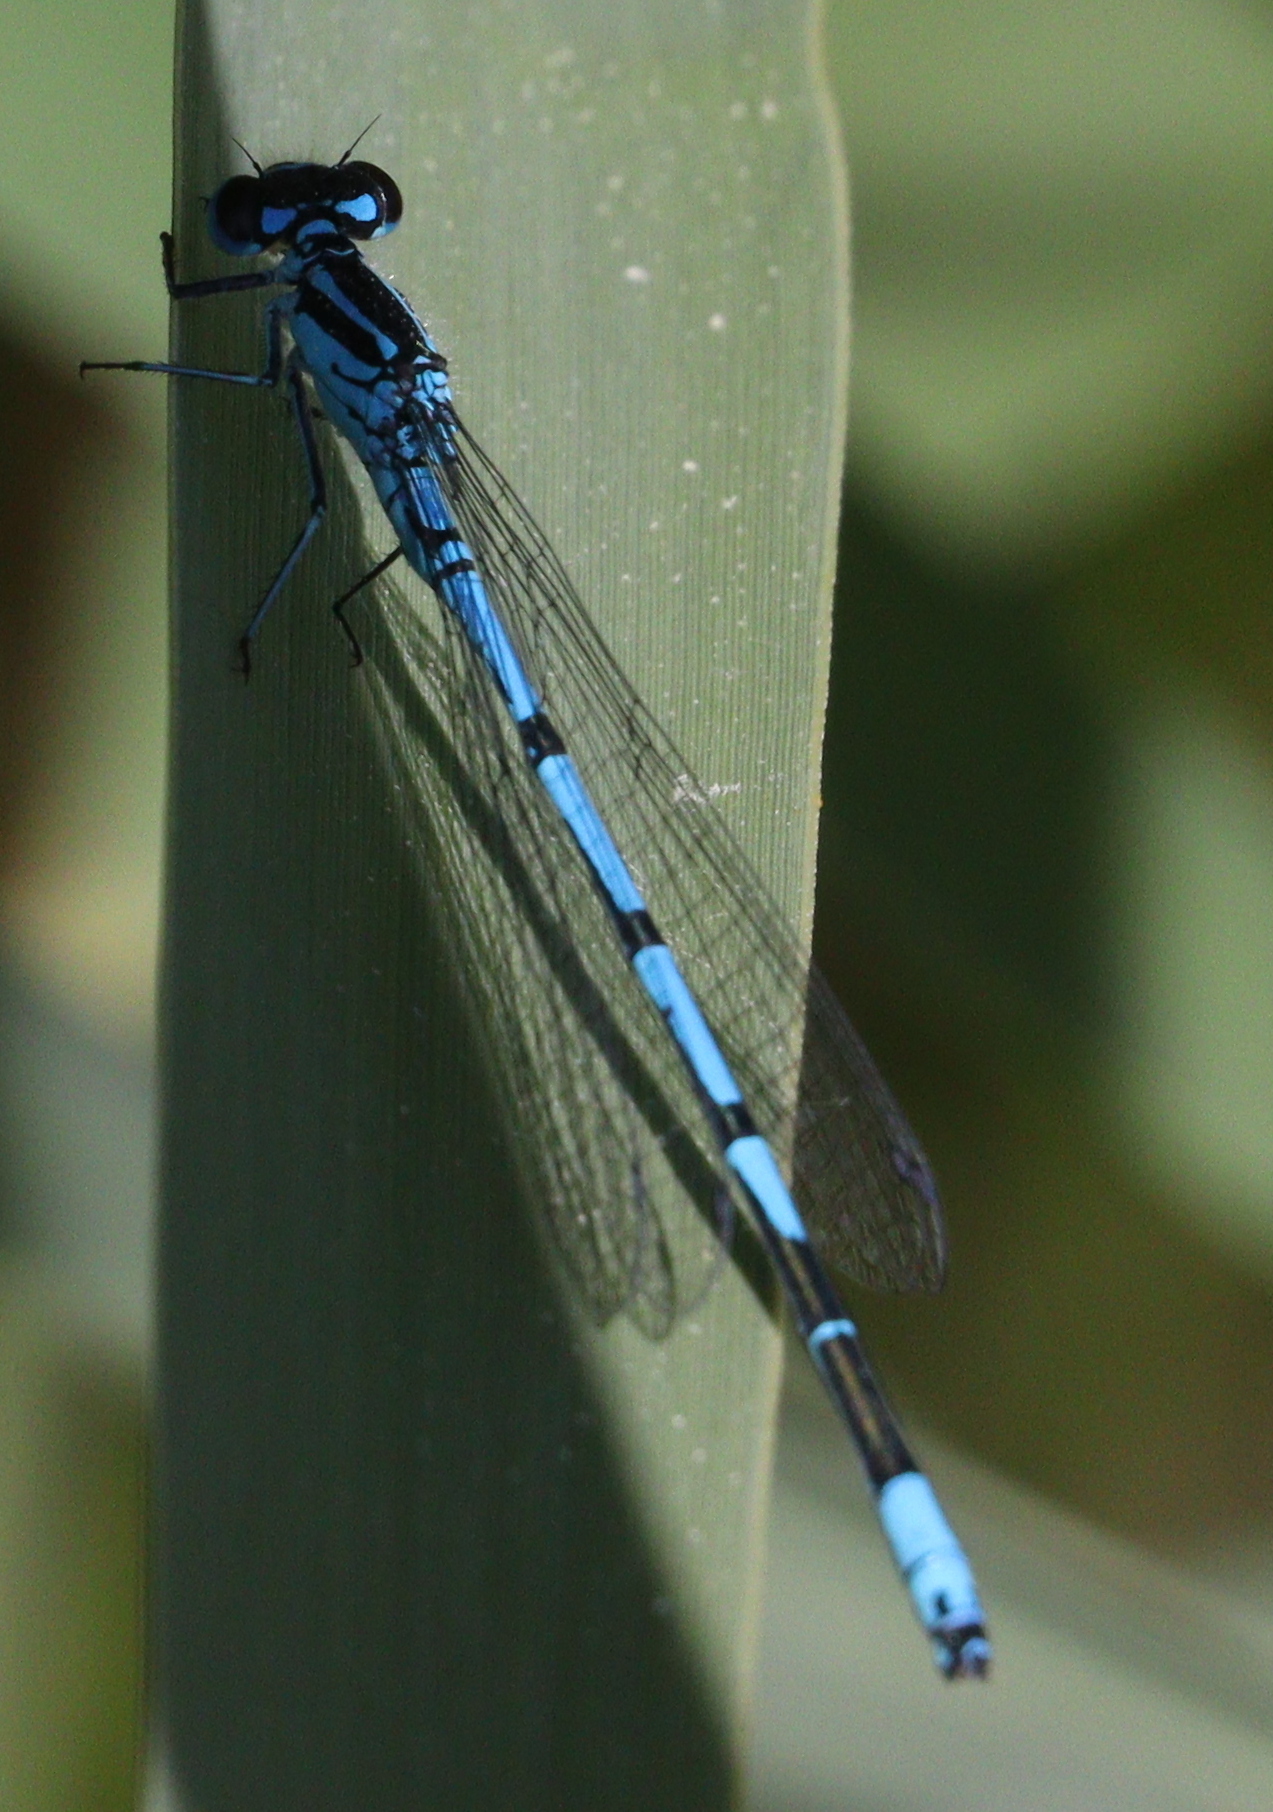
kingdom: Animalia
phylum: Arthropoda
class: Insecta
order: Odonata
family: Coenagrionidae
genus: Coenagrion
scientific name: Coenagrion puella
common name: Azure damselfly
